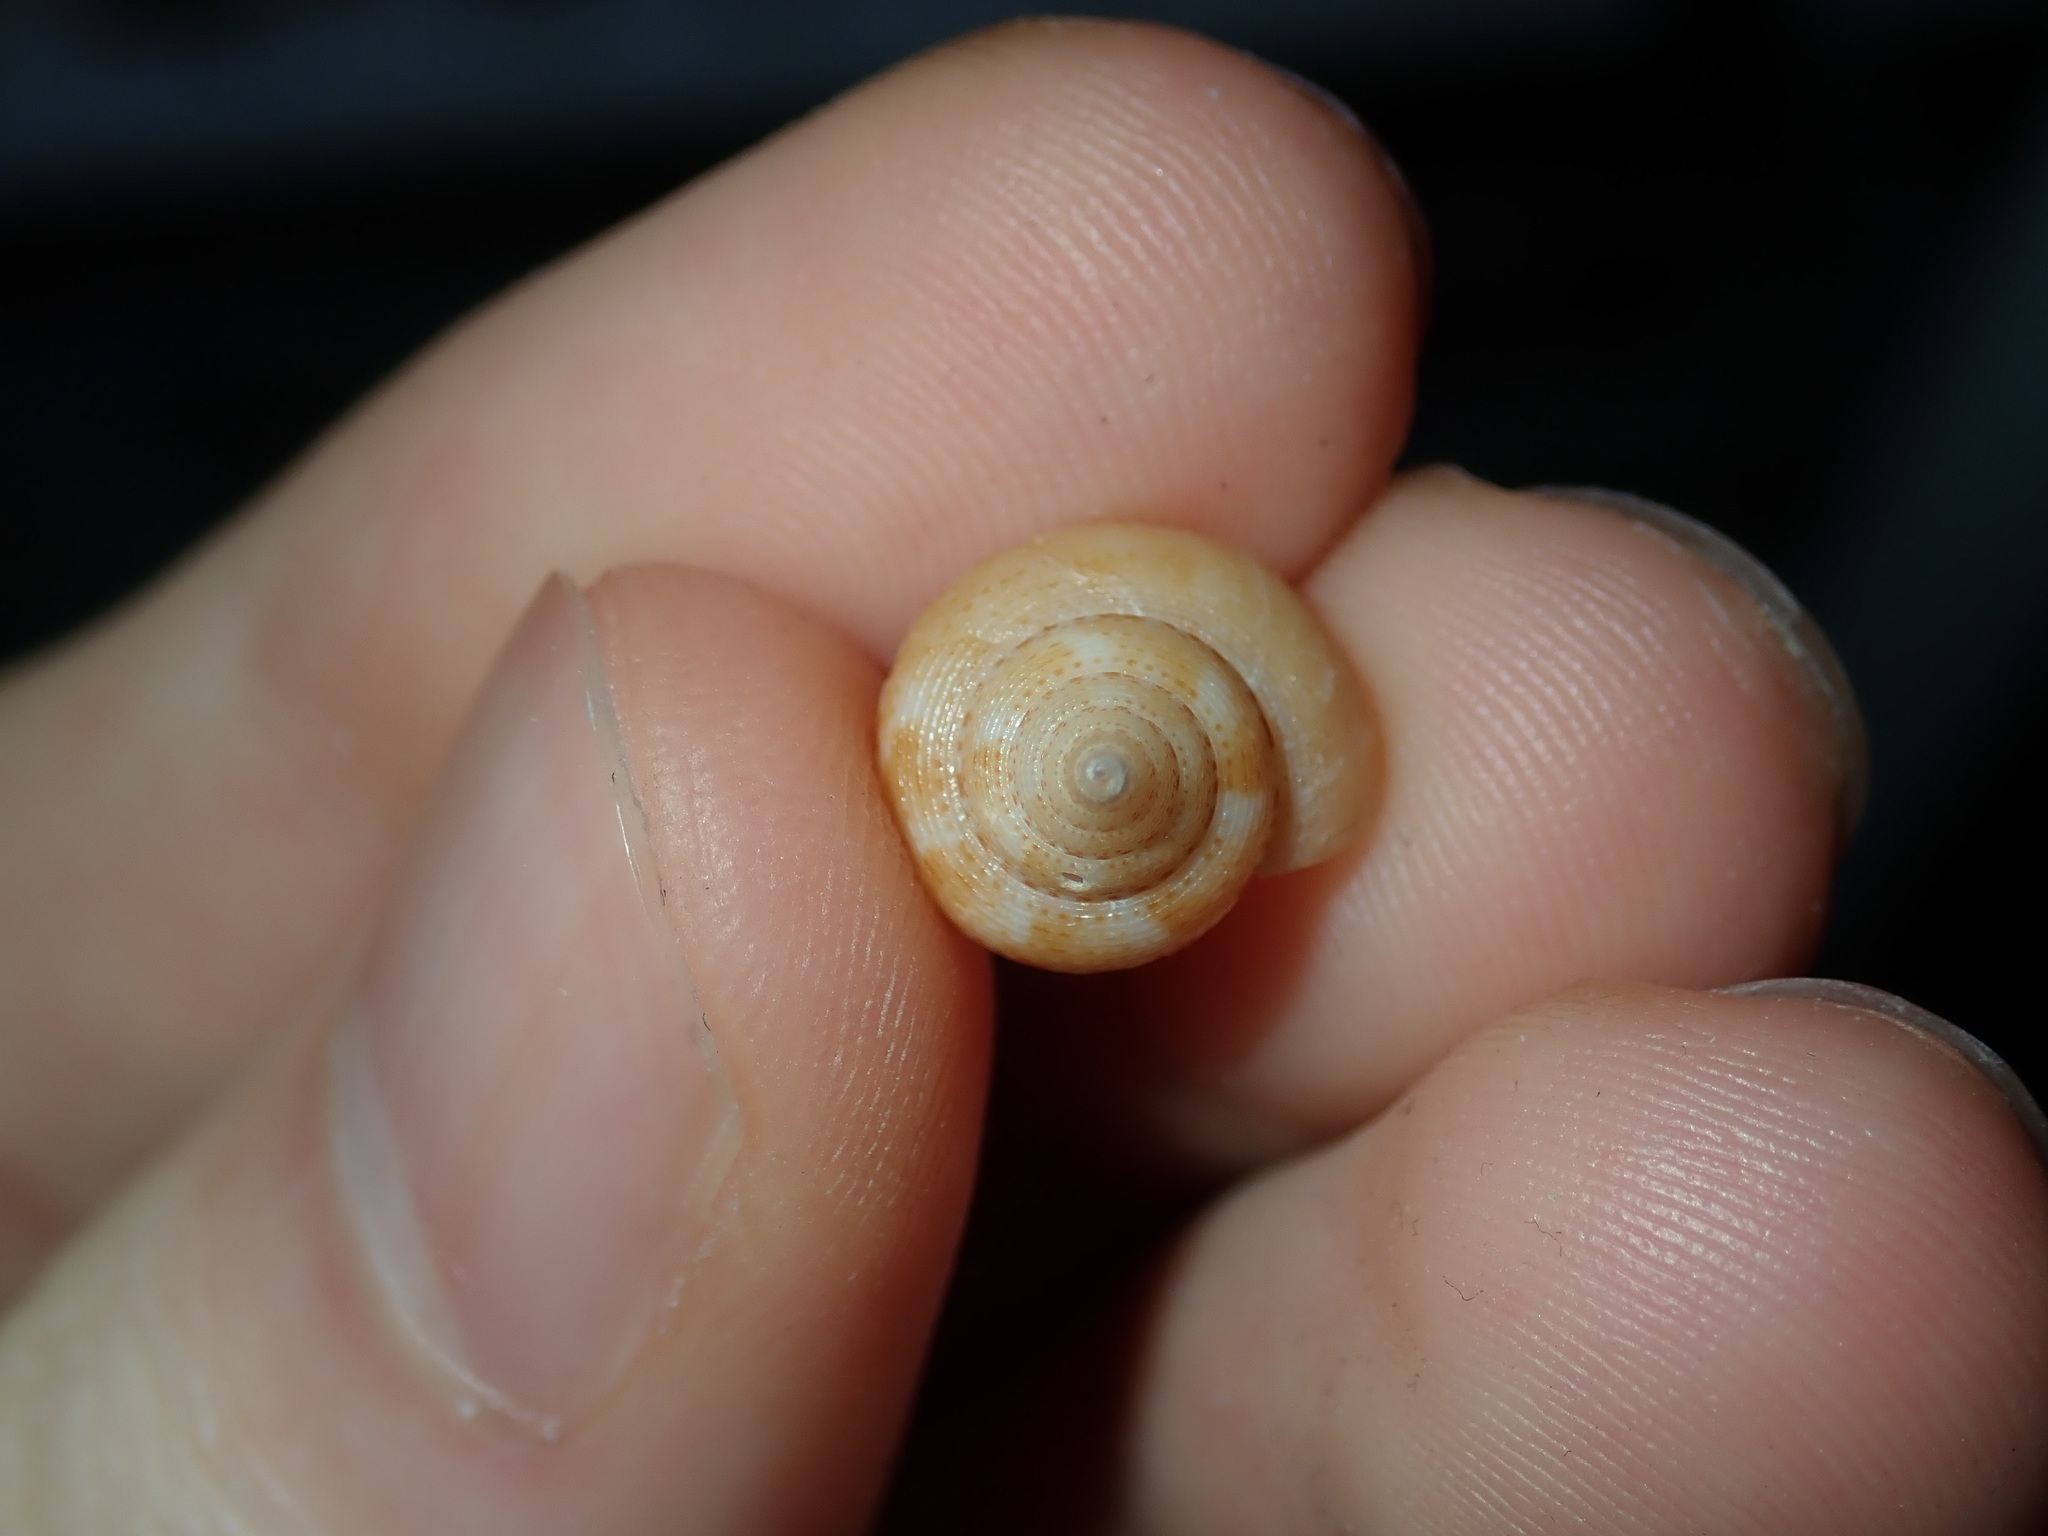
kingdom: Animalia
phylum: Mollusca
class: Gastropoda
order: Trochida
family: Calliostomatidae
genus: Astele
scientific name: Astele scitula
